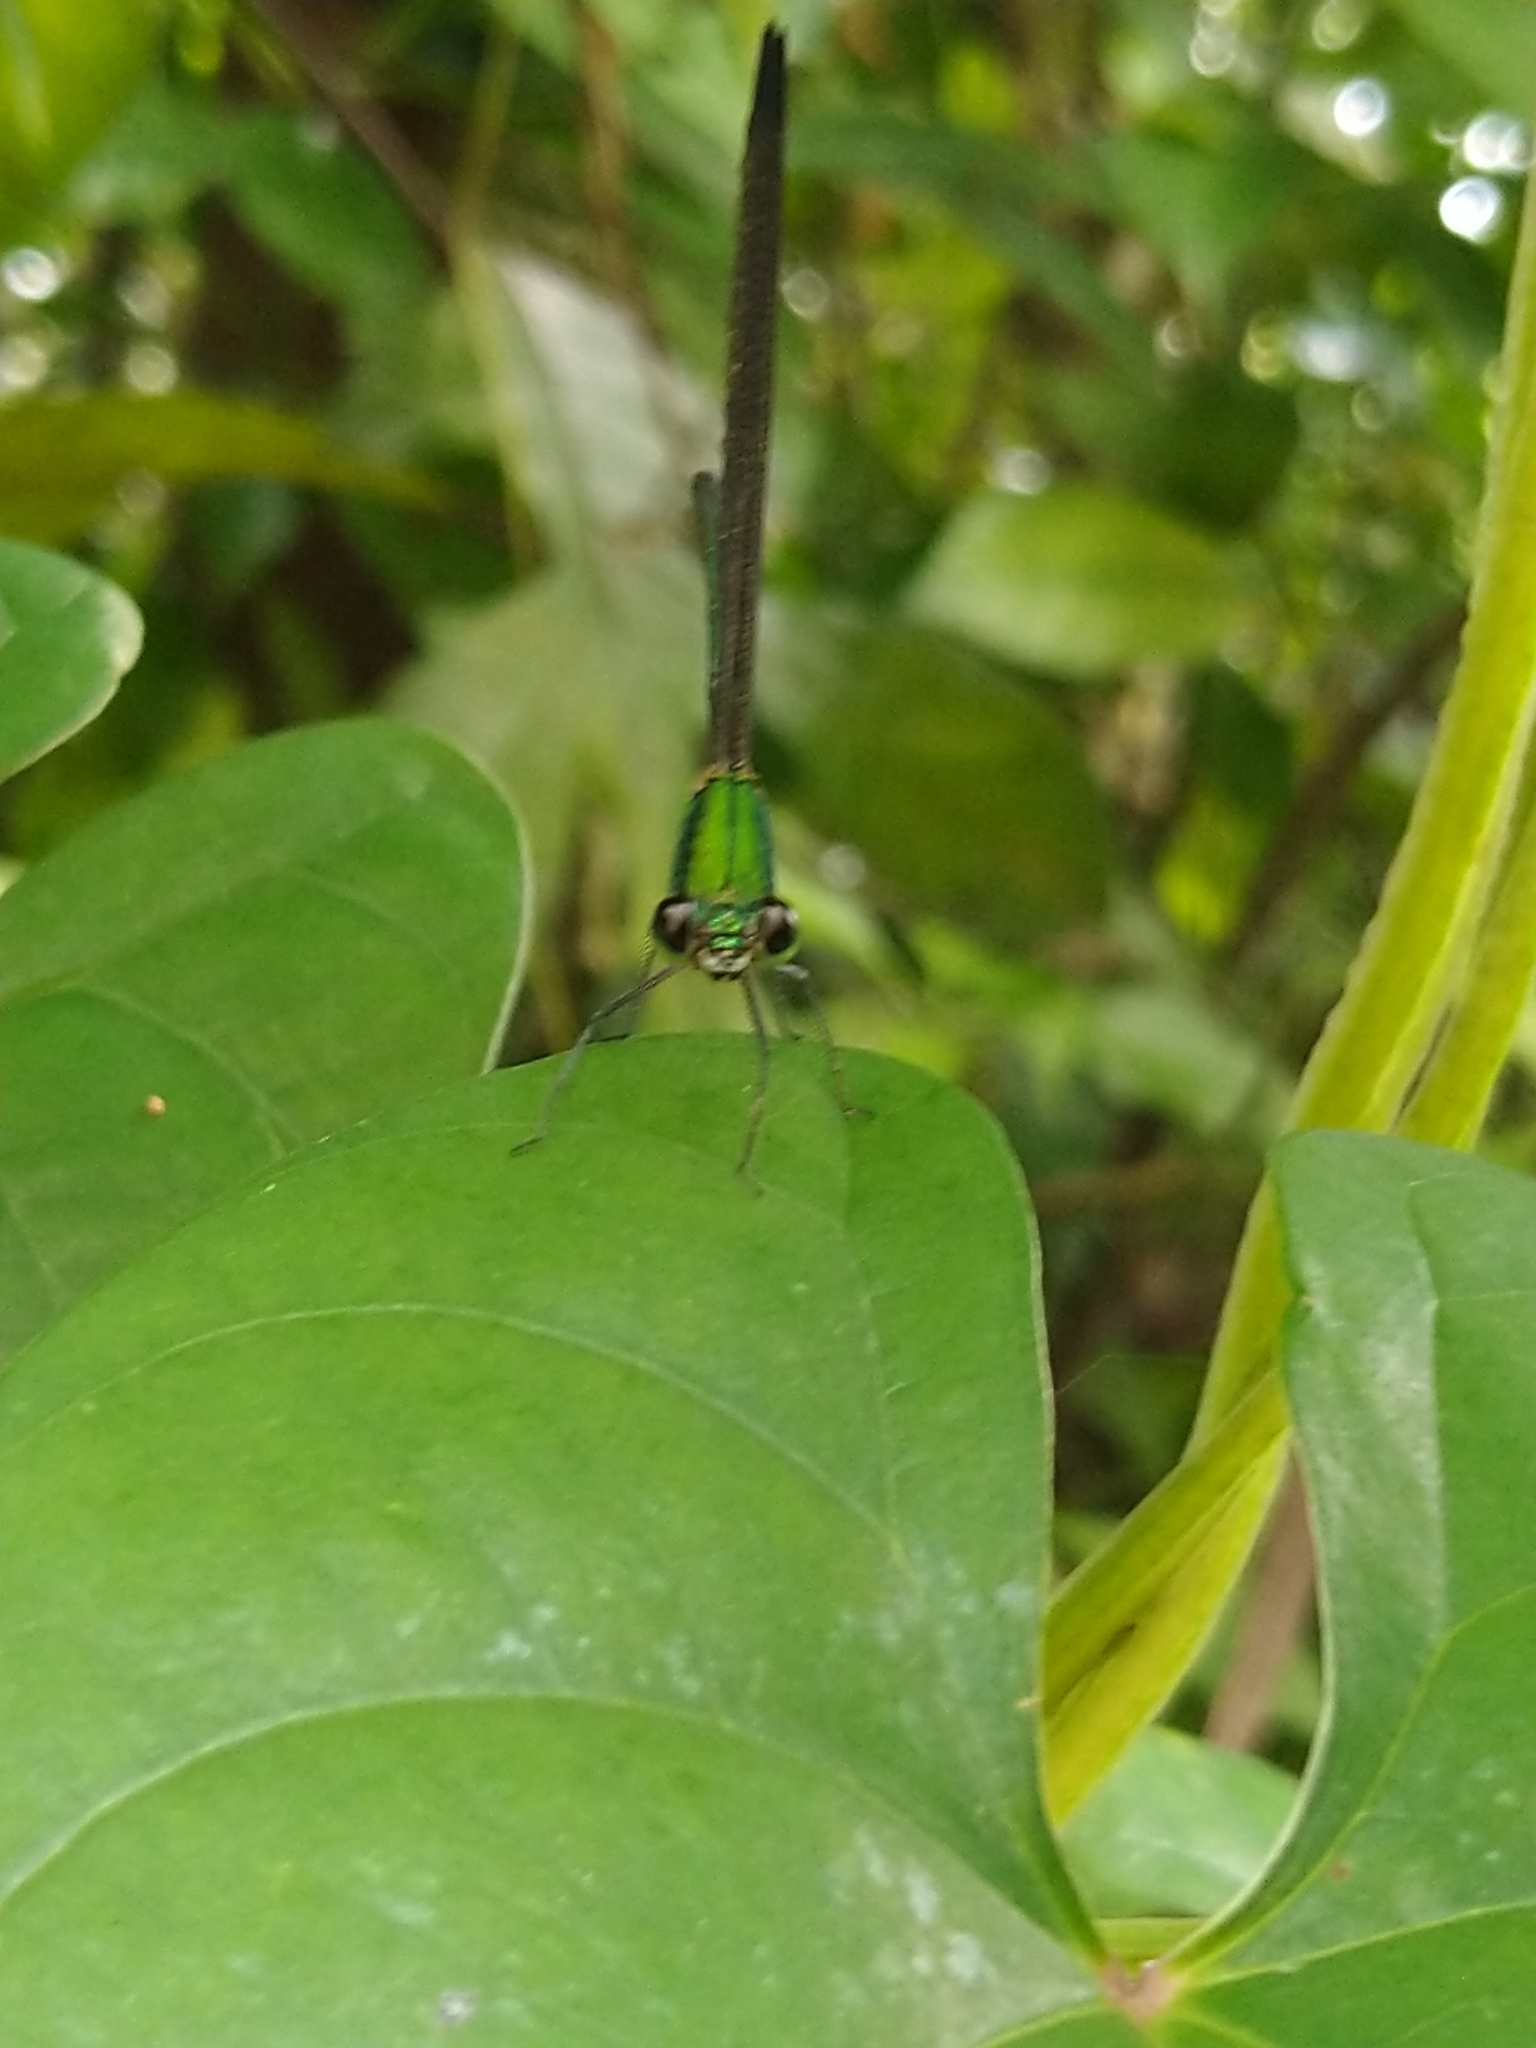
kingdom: Animalia
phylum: Arthropoda
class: Insecta
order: Odonata
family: Calopterygidae
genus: Vestalis
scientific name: Vestalis apicalis
